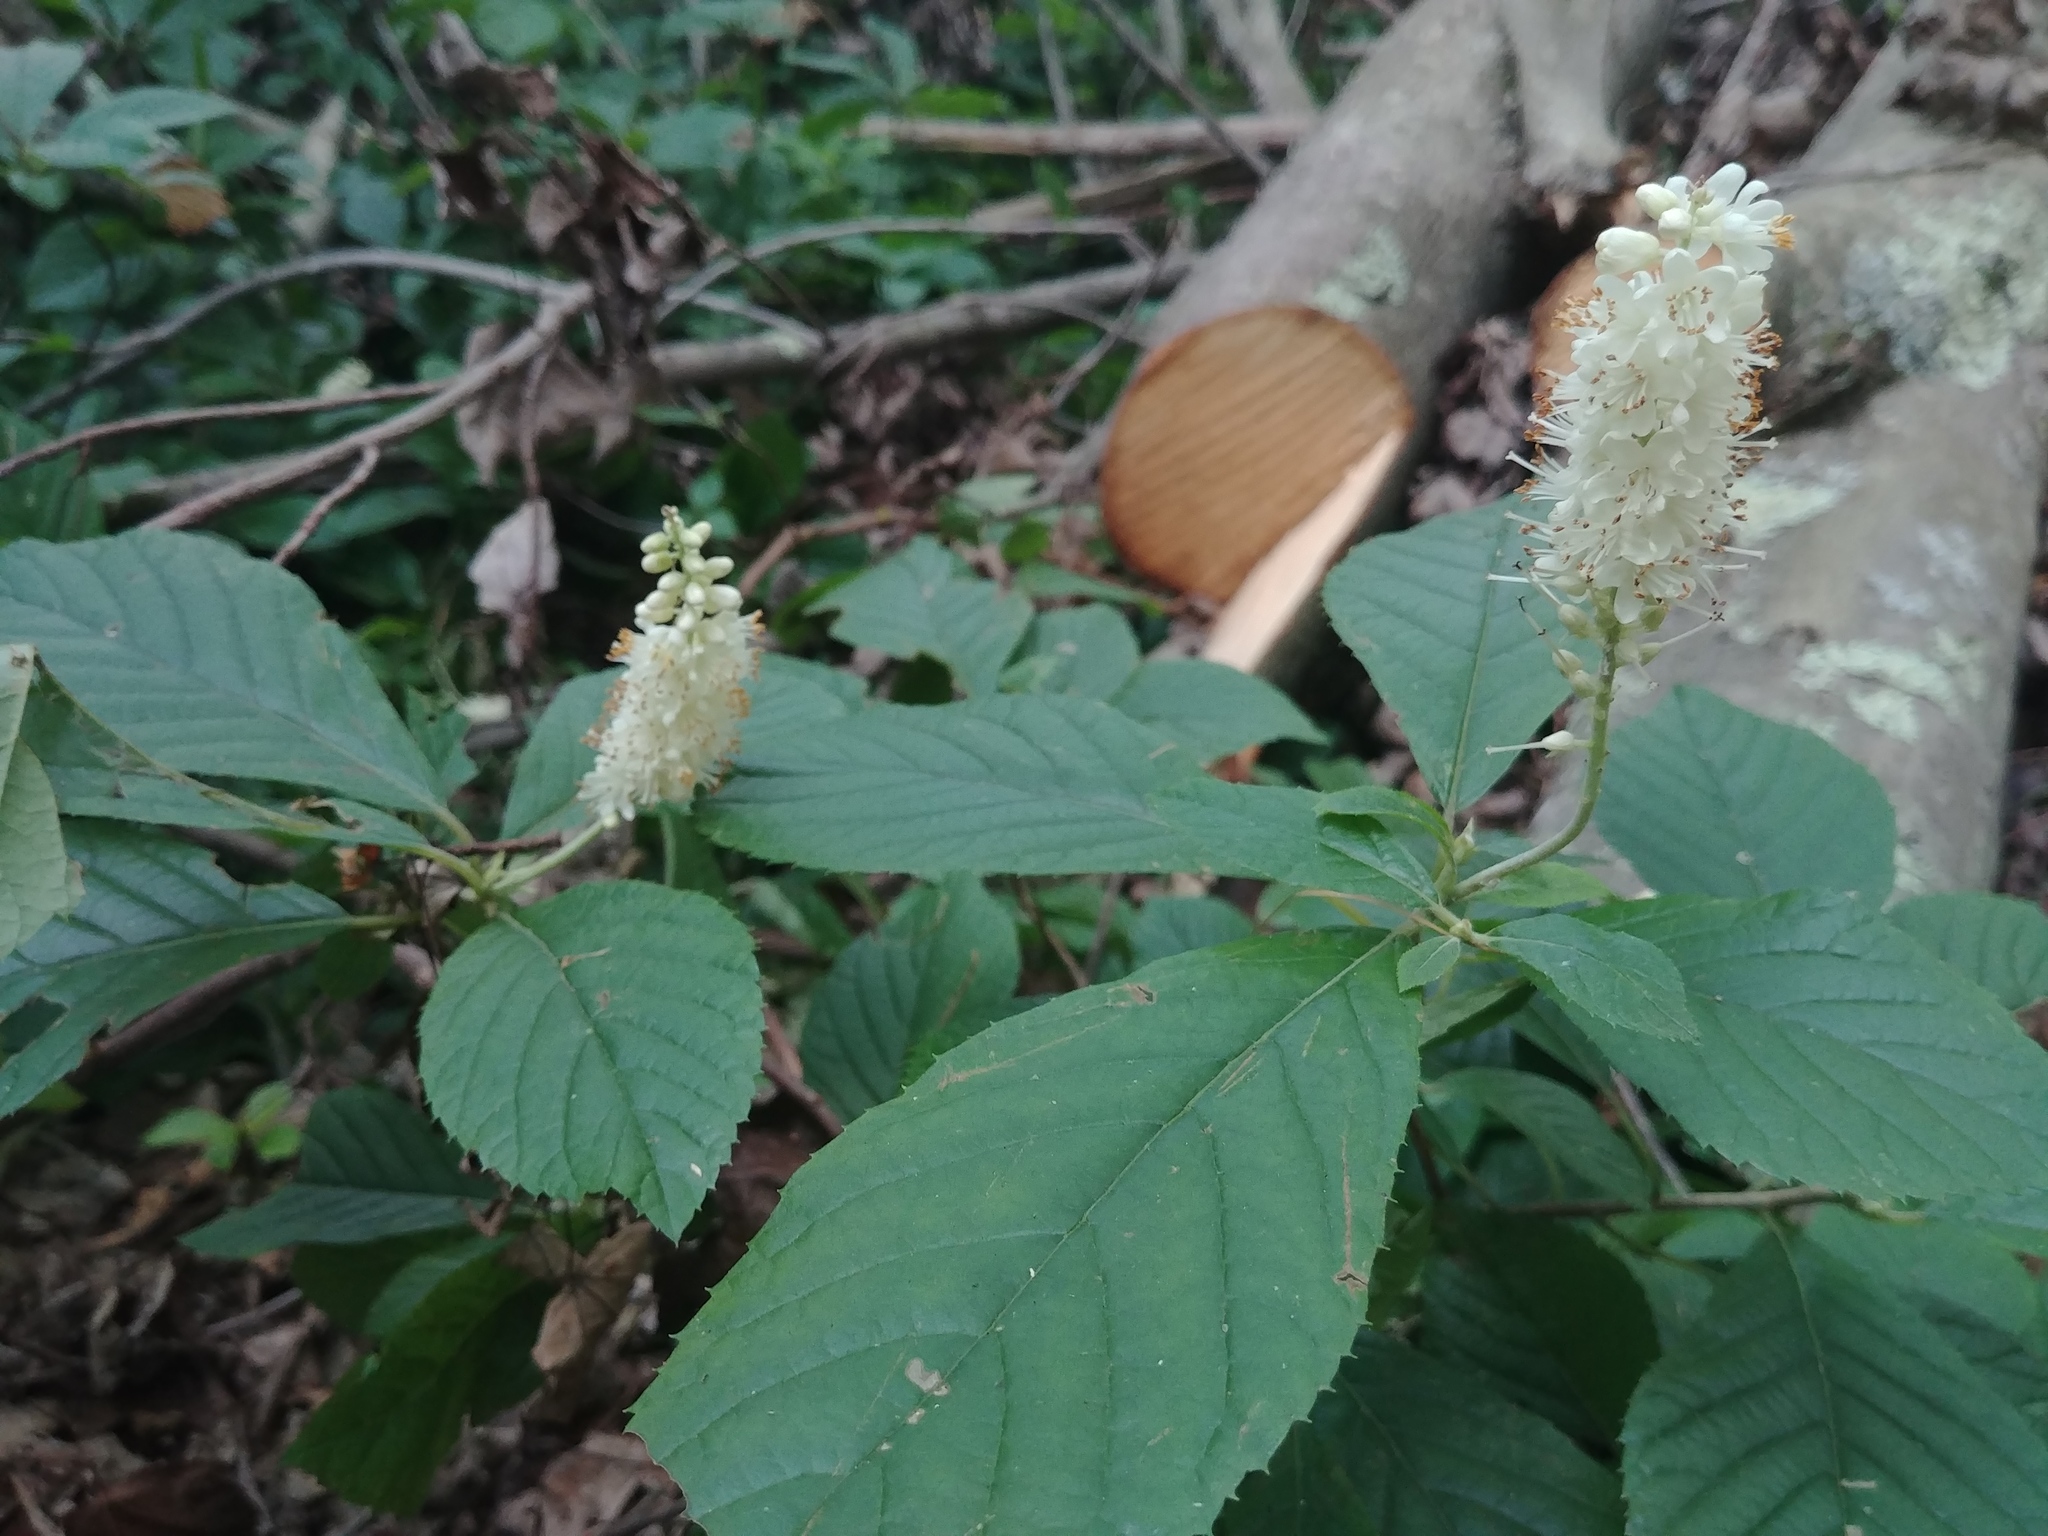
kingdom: Plantae
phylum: Tracheophyta
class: Magnoliopsida
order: Ericales
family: Clethraceae
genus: Clethra
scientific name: Clethra alnifolia
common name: Sweet pepperbush
